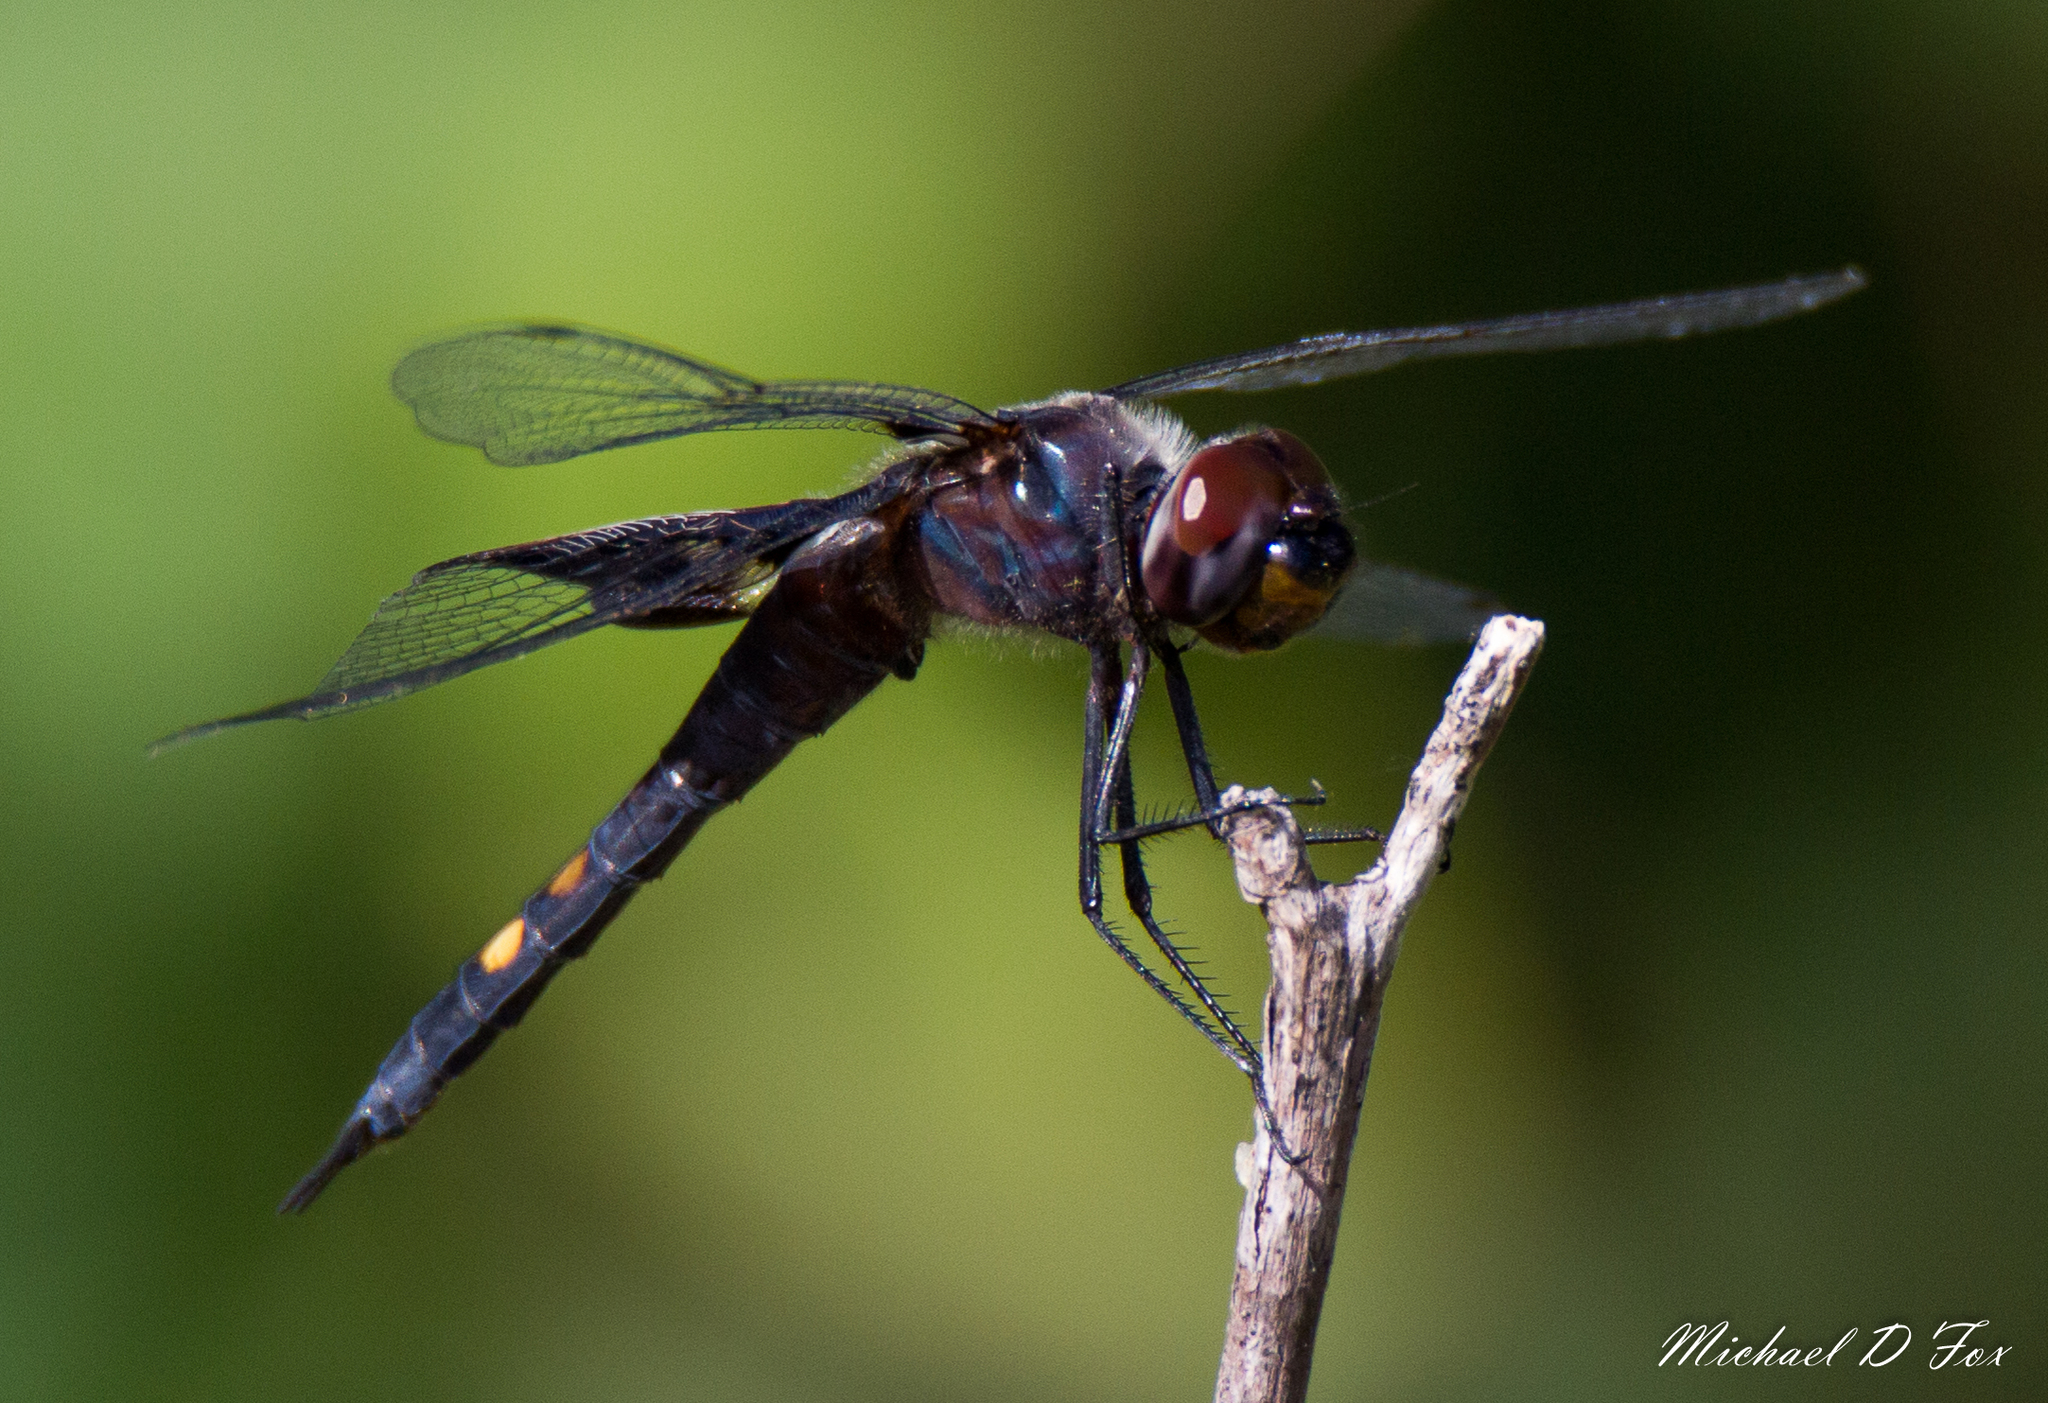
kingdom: Animalia
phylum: Arthropoda
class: Insecta
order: Odonata
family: Libellulidae
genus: Tramea
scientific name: Tramea lacerata
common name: Black saddlebags
